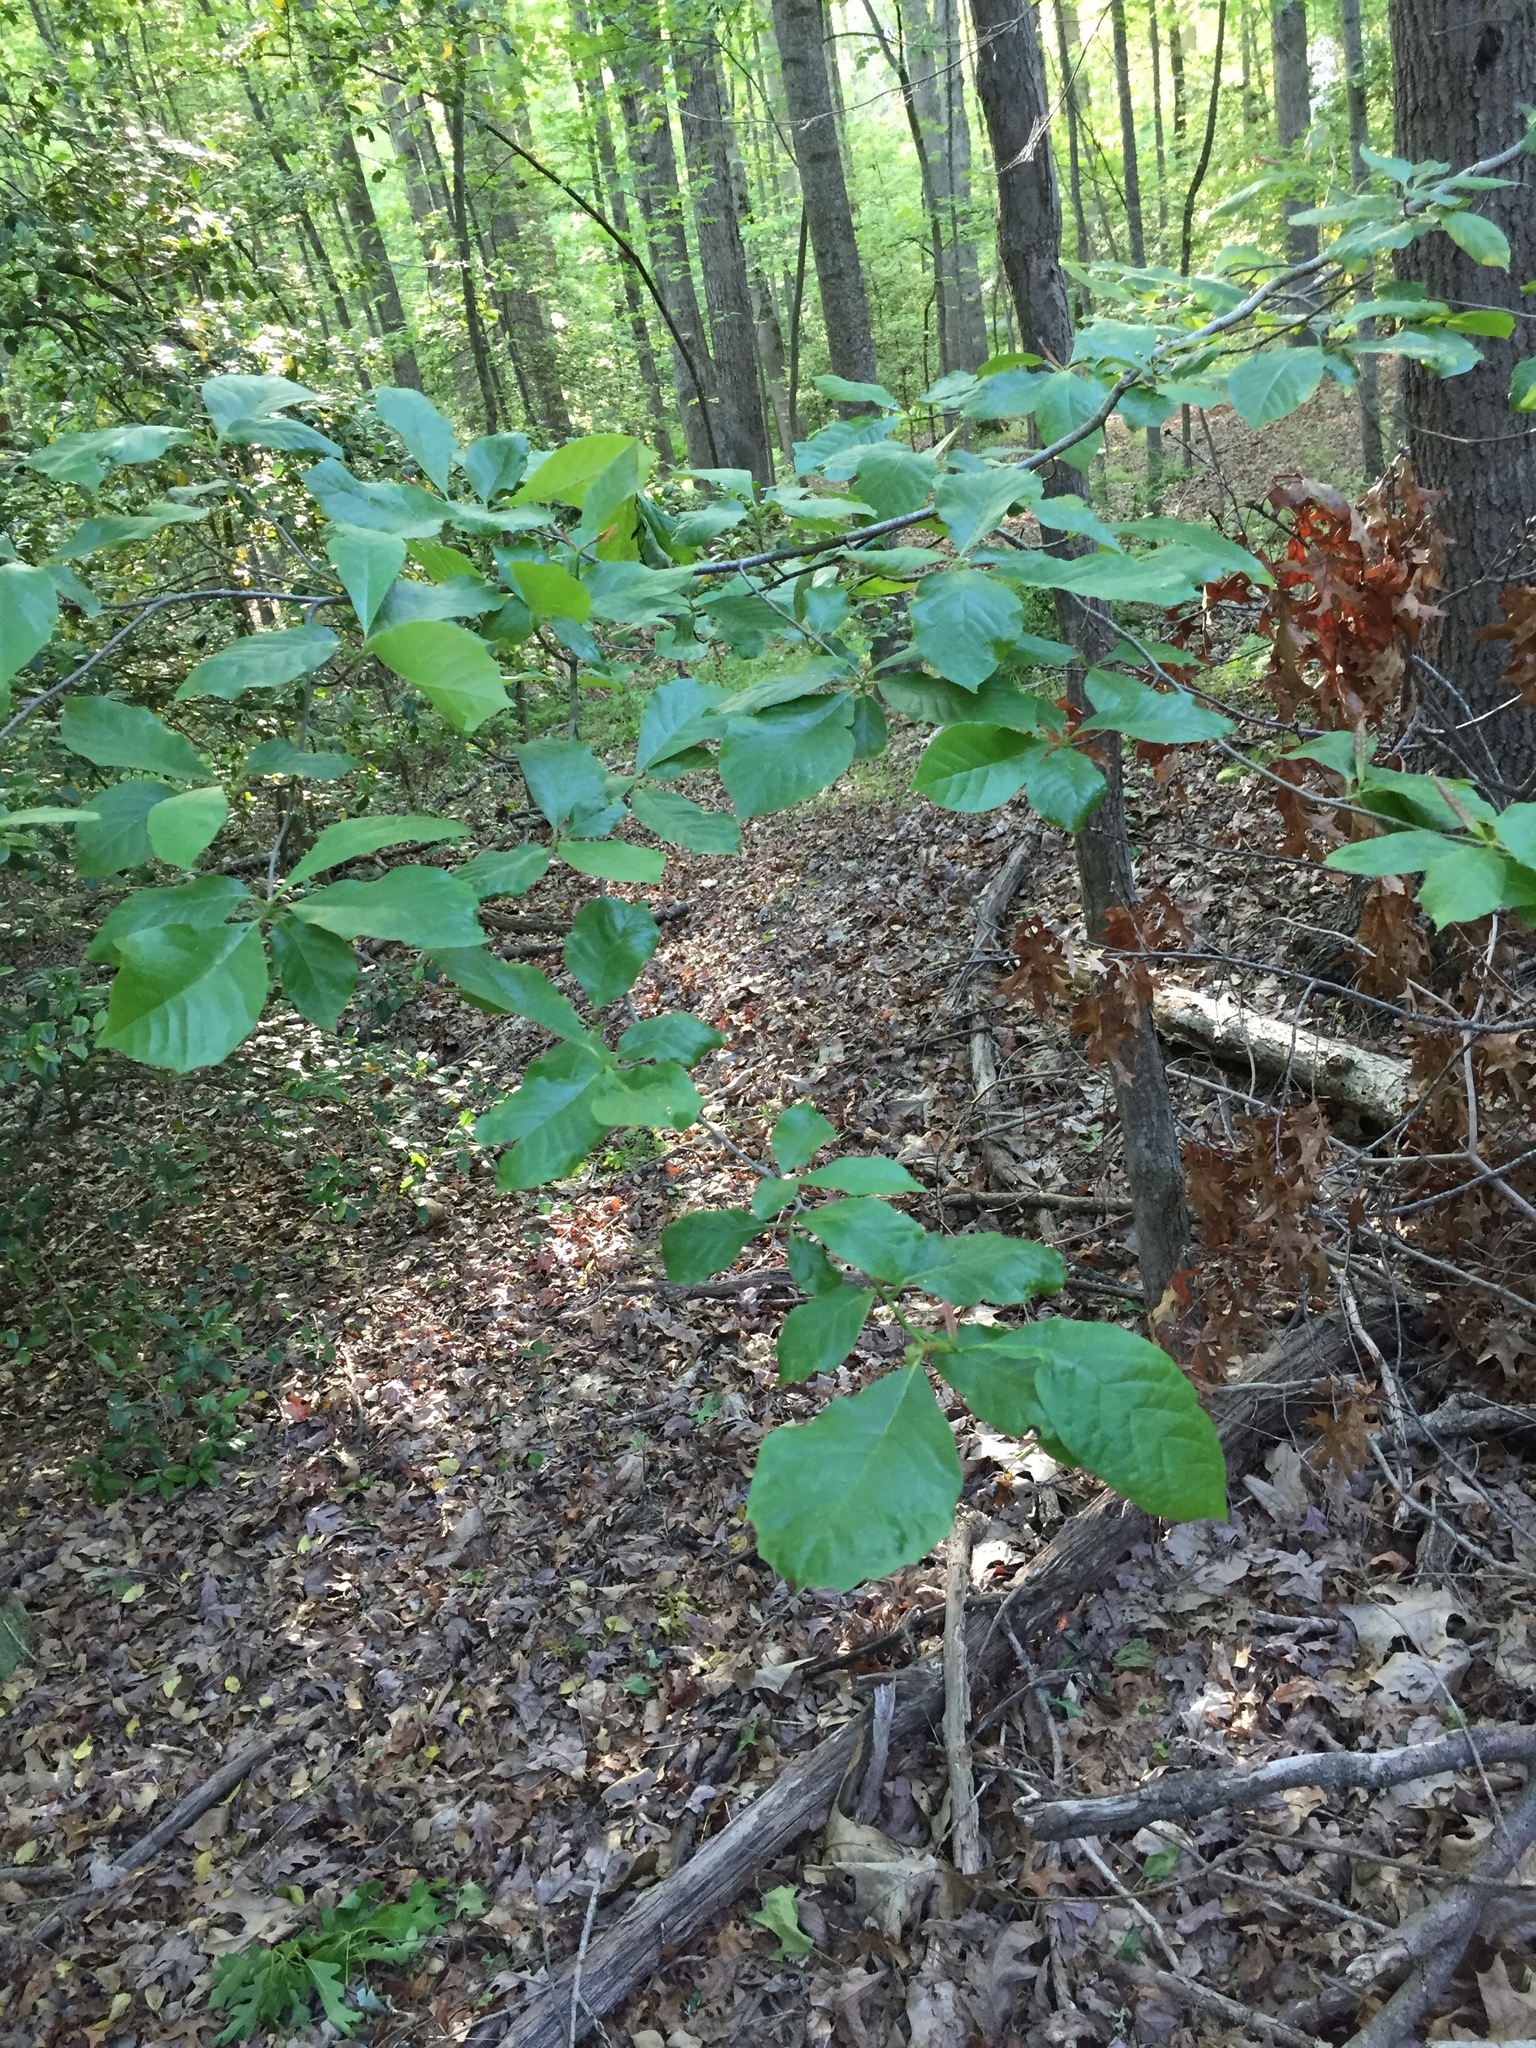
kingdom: Plantae
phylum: Tracheophyta
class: Magnoliopsida
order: Cornales
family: Nyssaceae
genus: Nyssa
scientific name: Nyssa sylvatica
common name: Black tupelo
